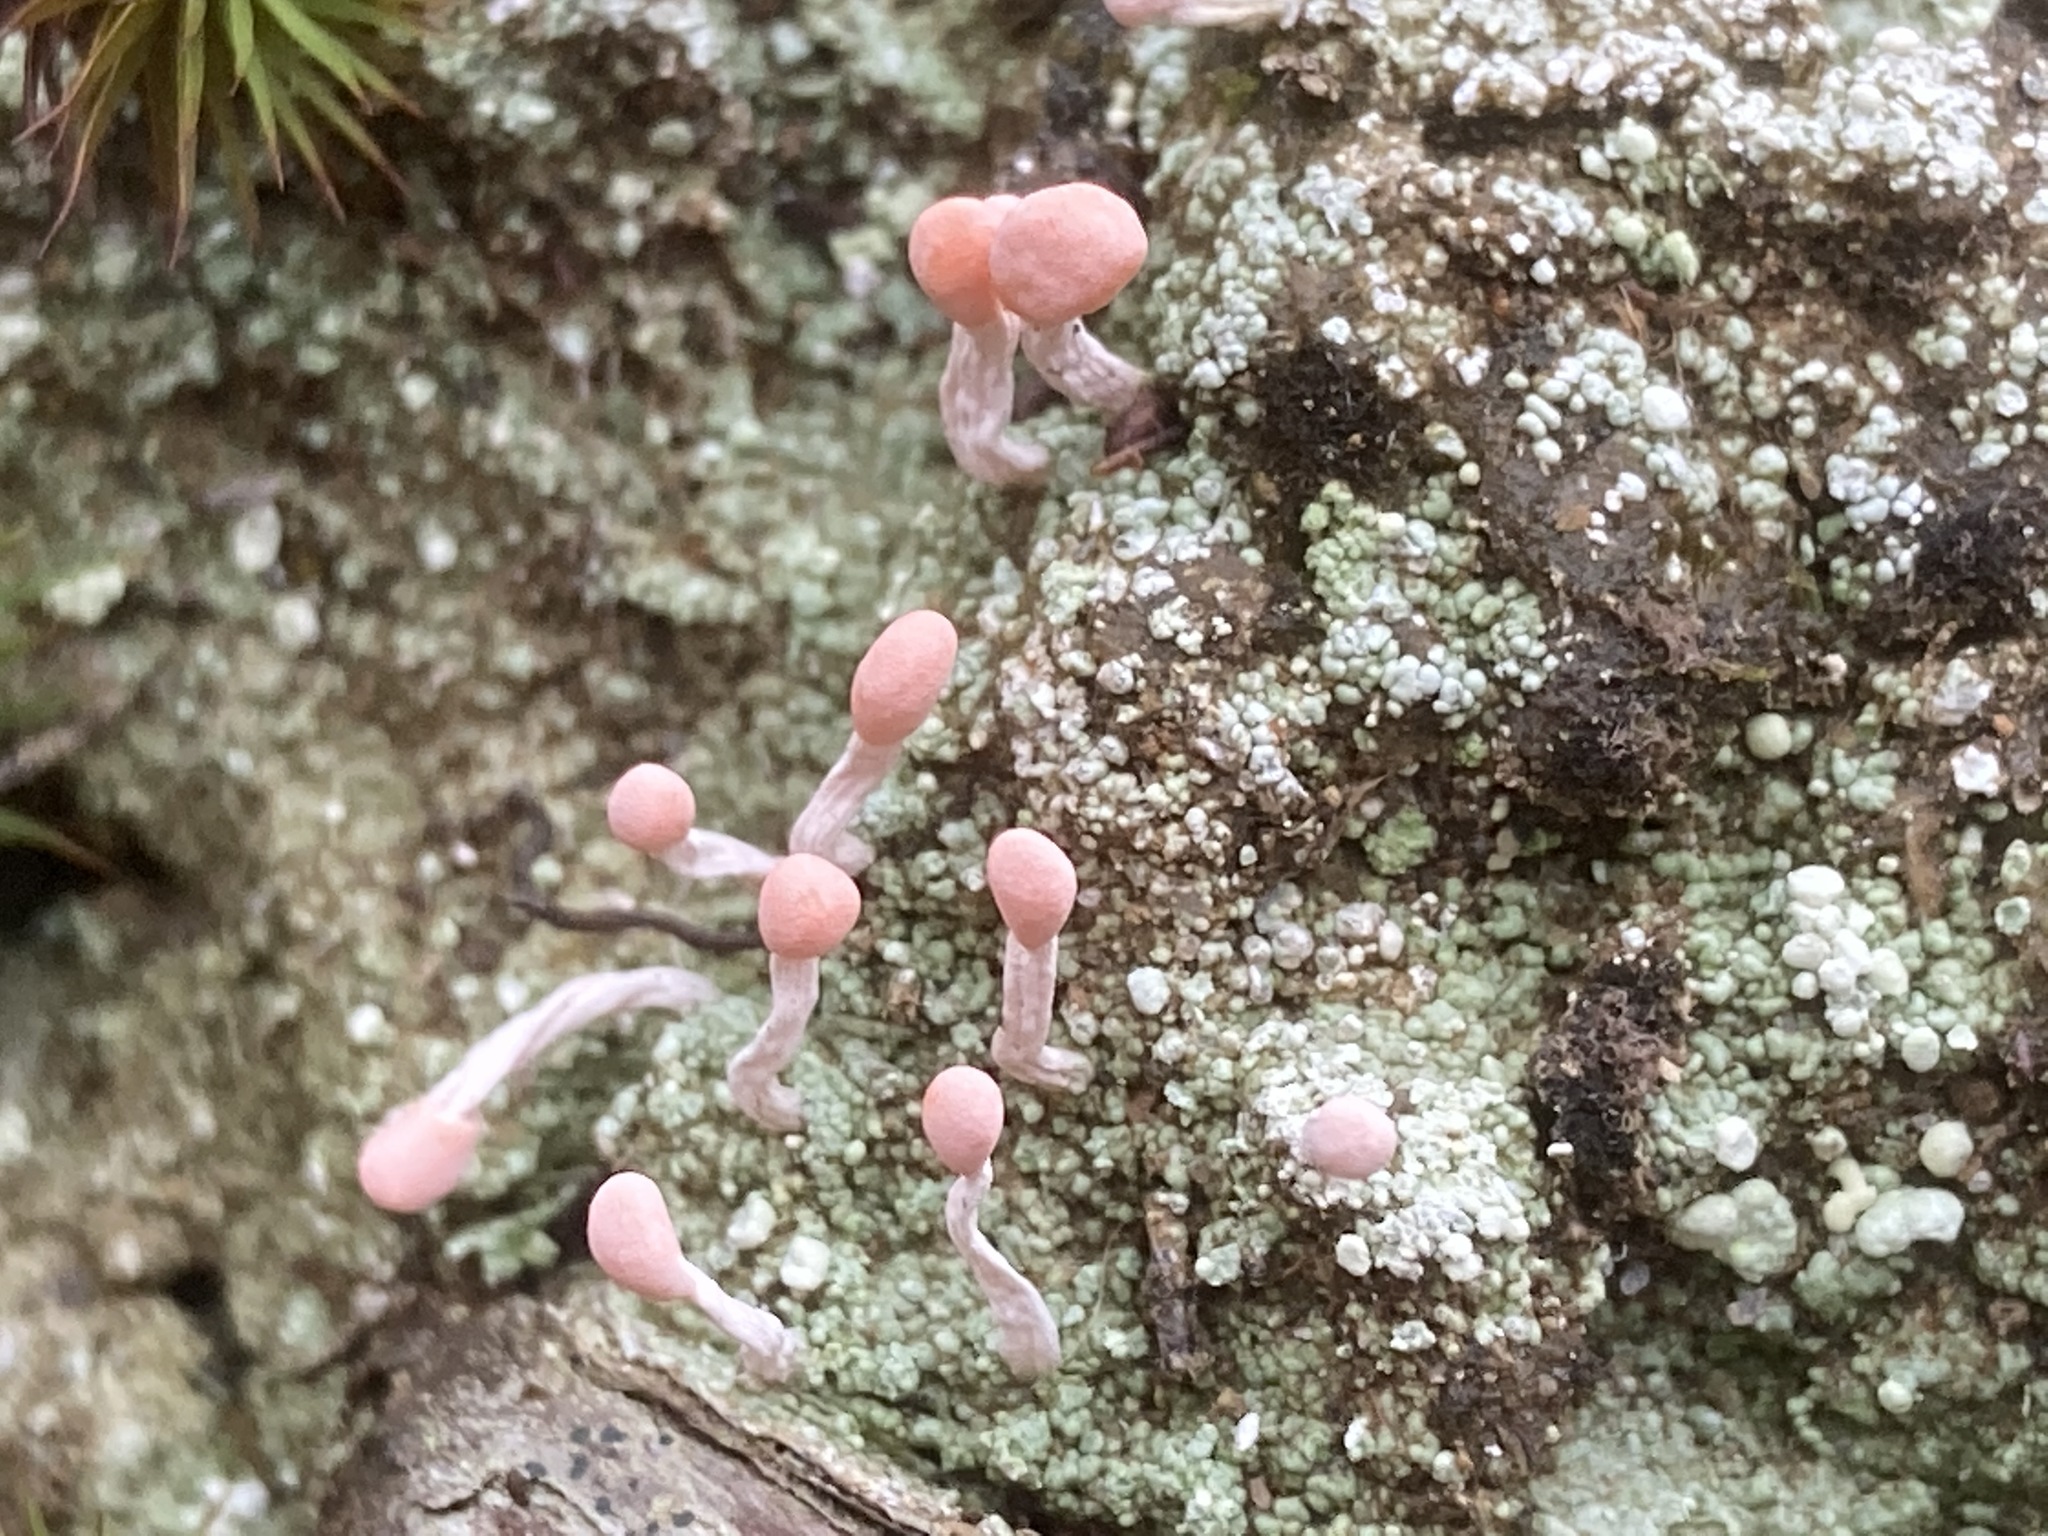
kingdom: Fungi
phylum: Ascomycota
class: Lecanoromycetes
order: Pertusariales
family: Icmadophilaceae
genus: Dibaeis
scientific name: Dibaeis baeomyces
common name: Pink earth lichen
